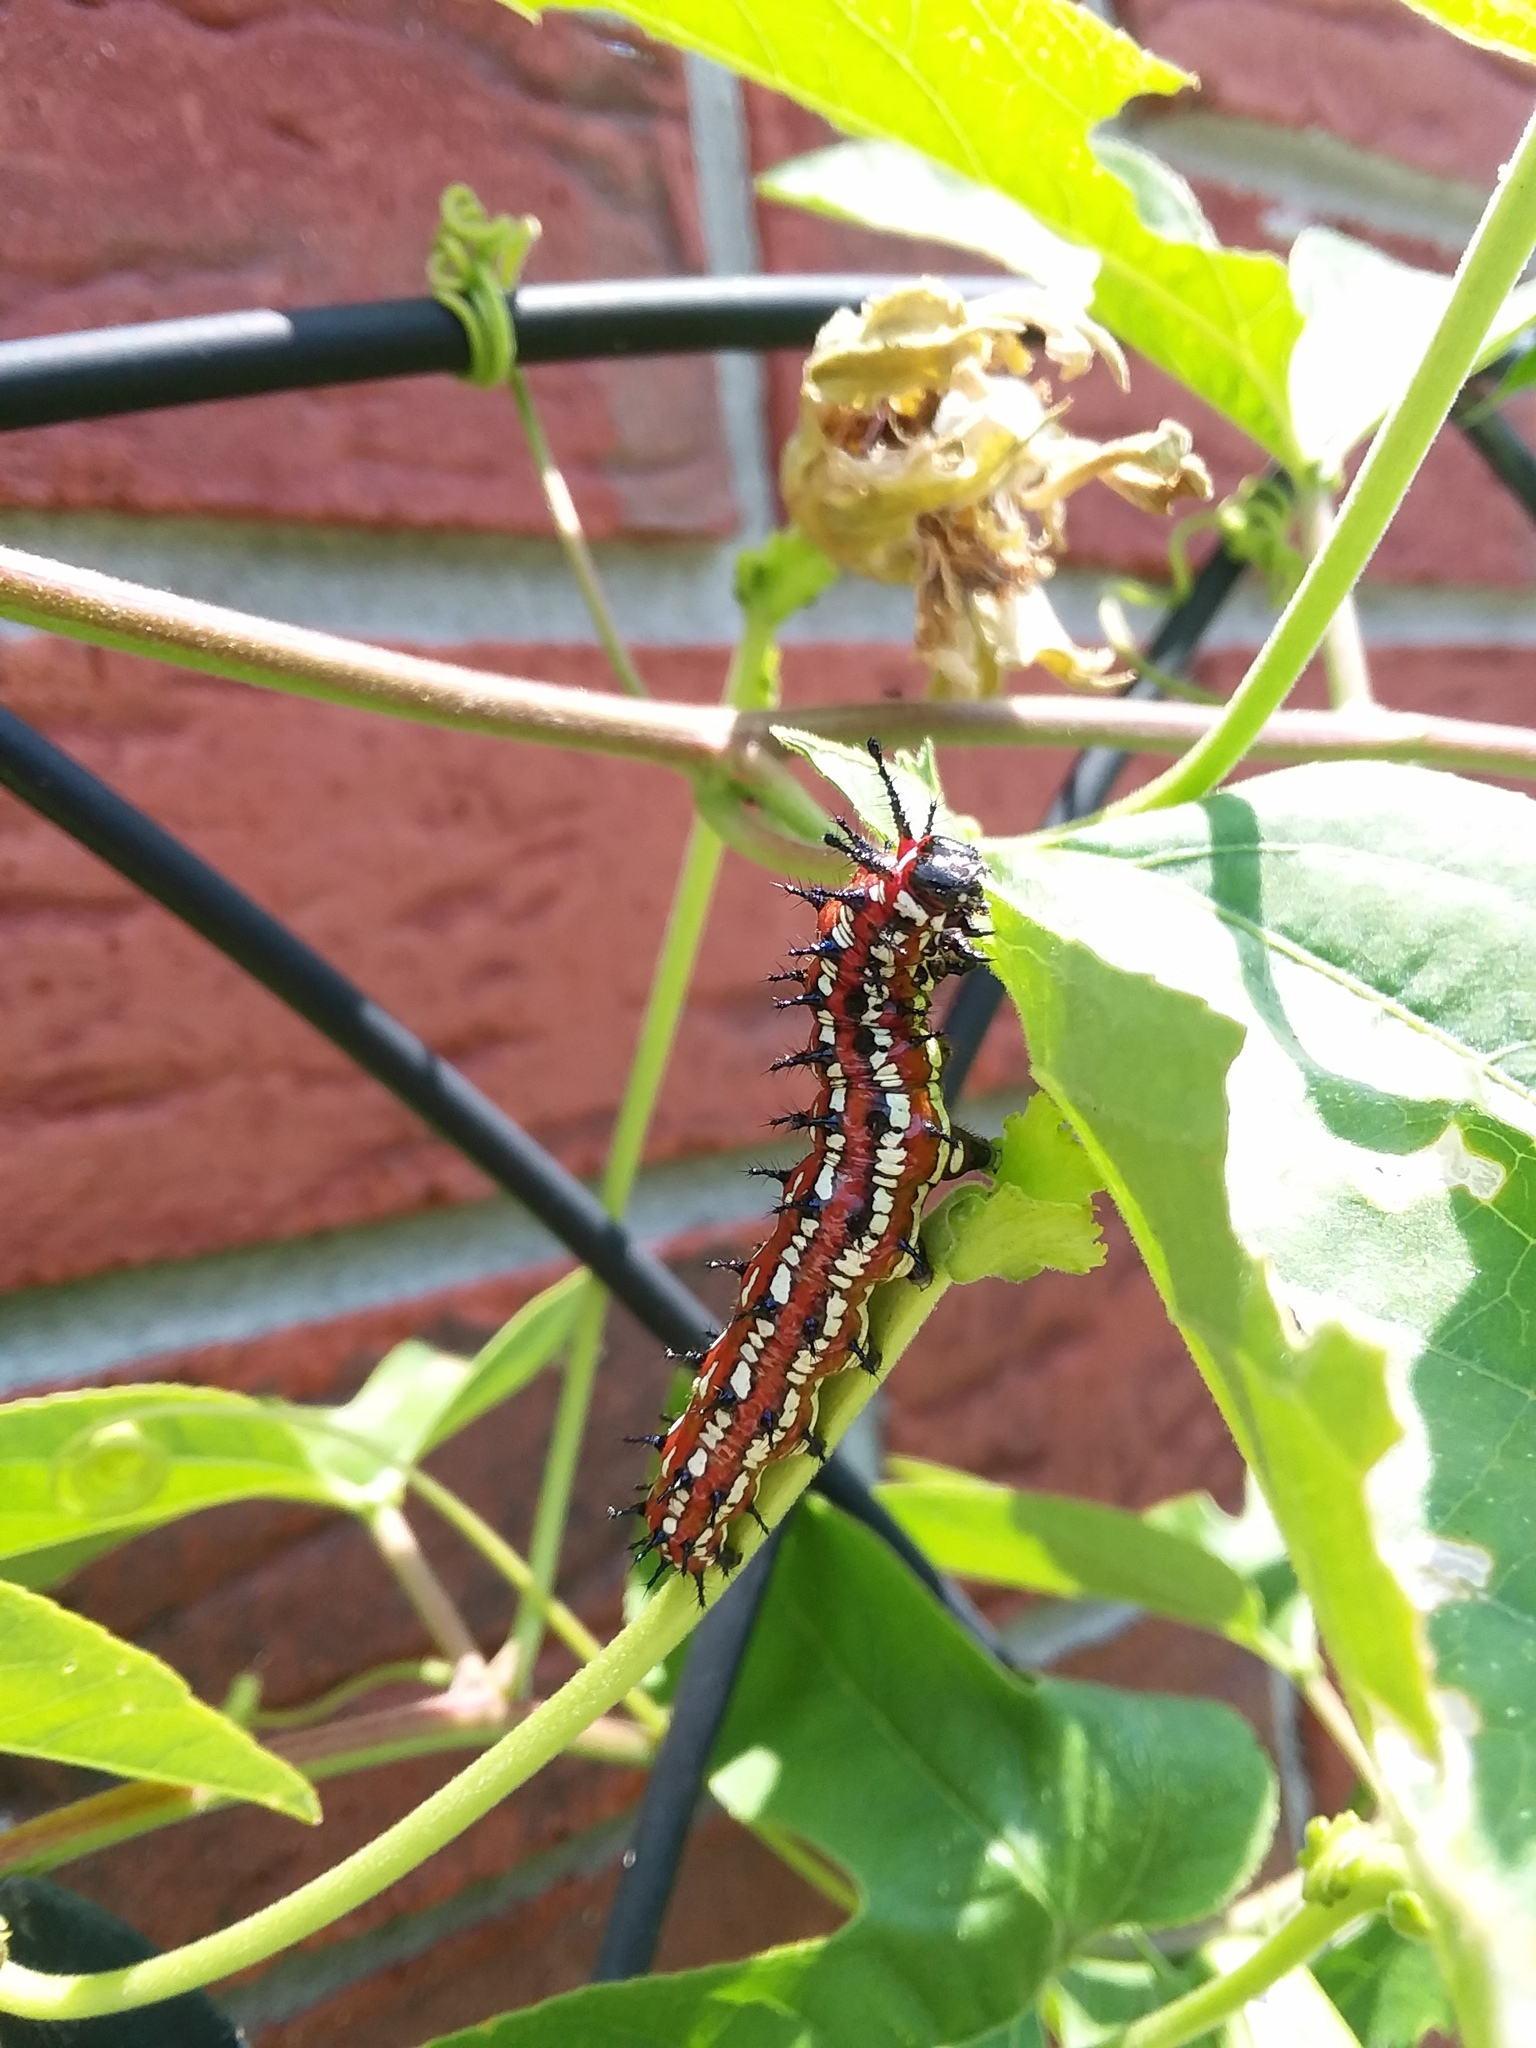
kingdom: Animalia
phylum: Arthropoda
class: Insecta
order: Lepidoptera
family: Nymphalidae
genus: Euptoieta
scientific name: Euptoieta claudia
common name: Variegated fritillary
